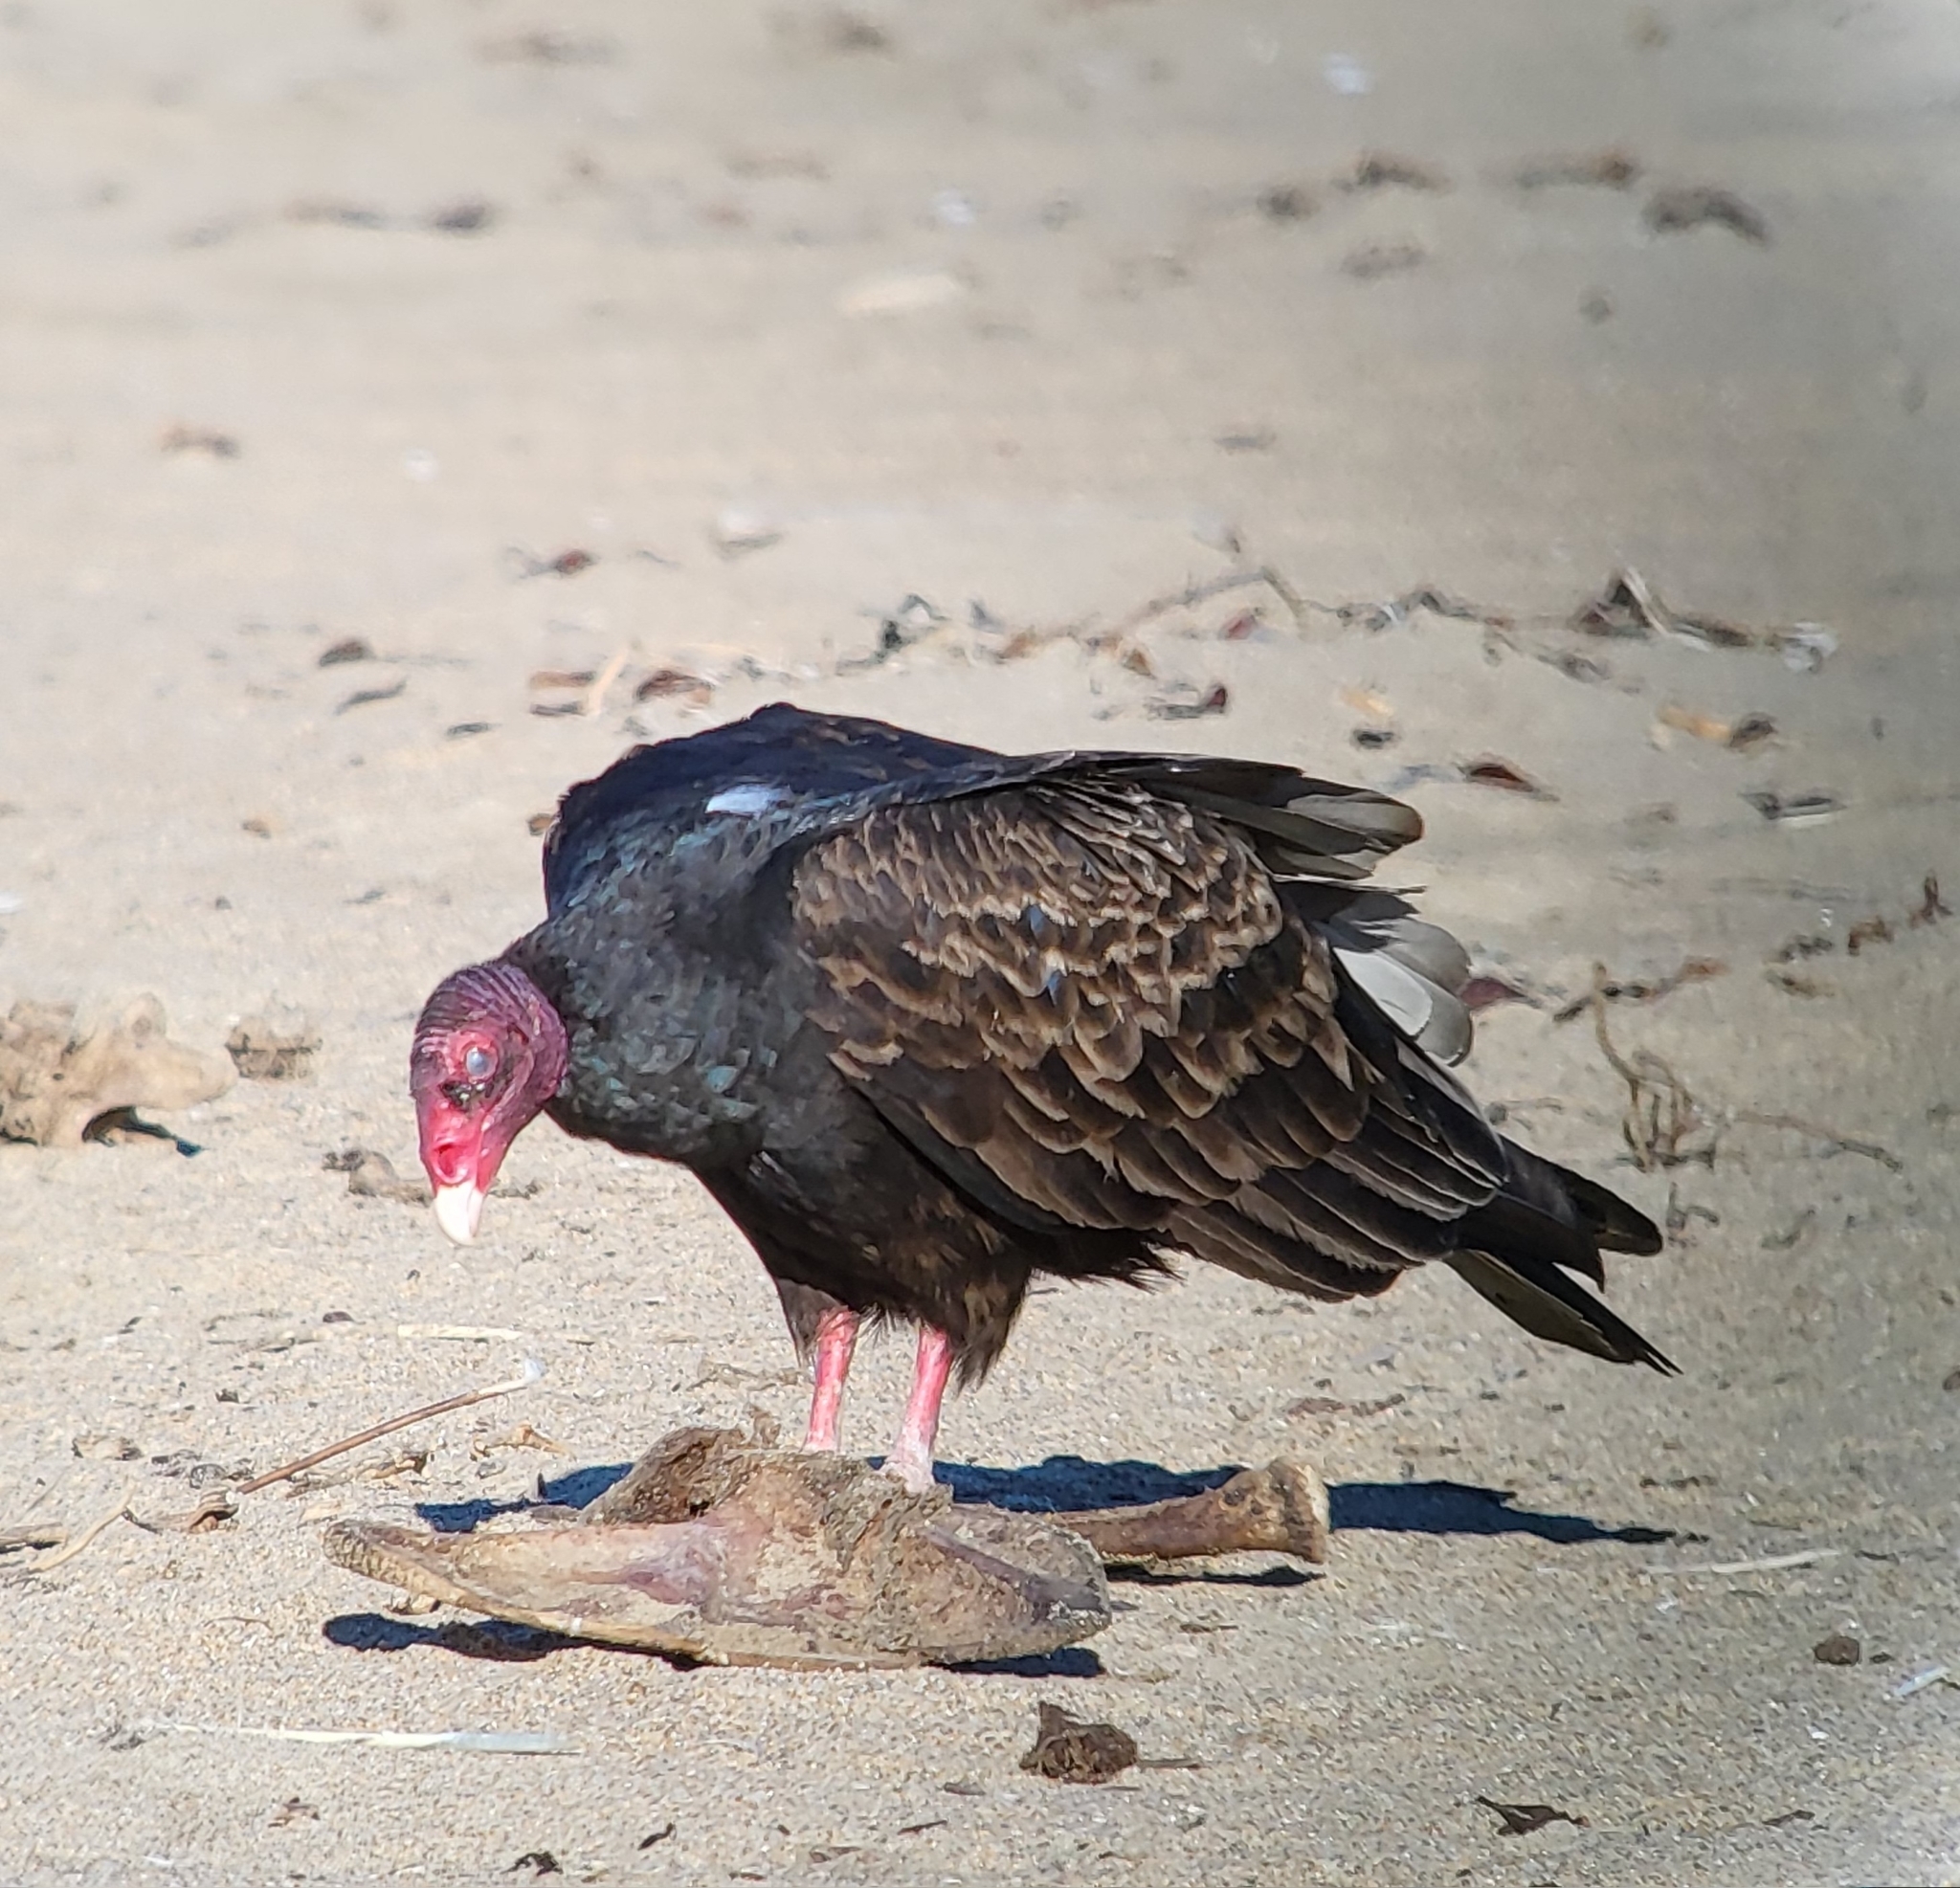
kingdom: Animalia
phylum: Chordata
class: Aves
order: Accipitriformes
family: Cathartidae
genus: Cathartes
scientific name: Cathartes aura
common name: Turkey vulture
